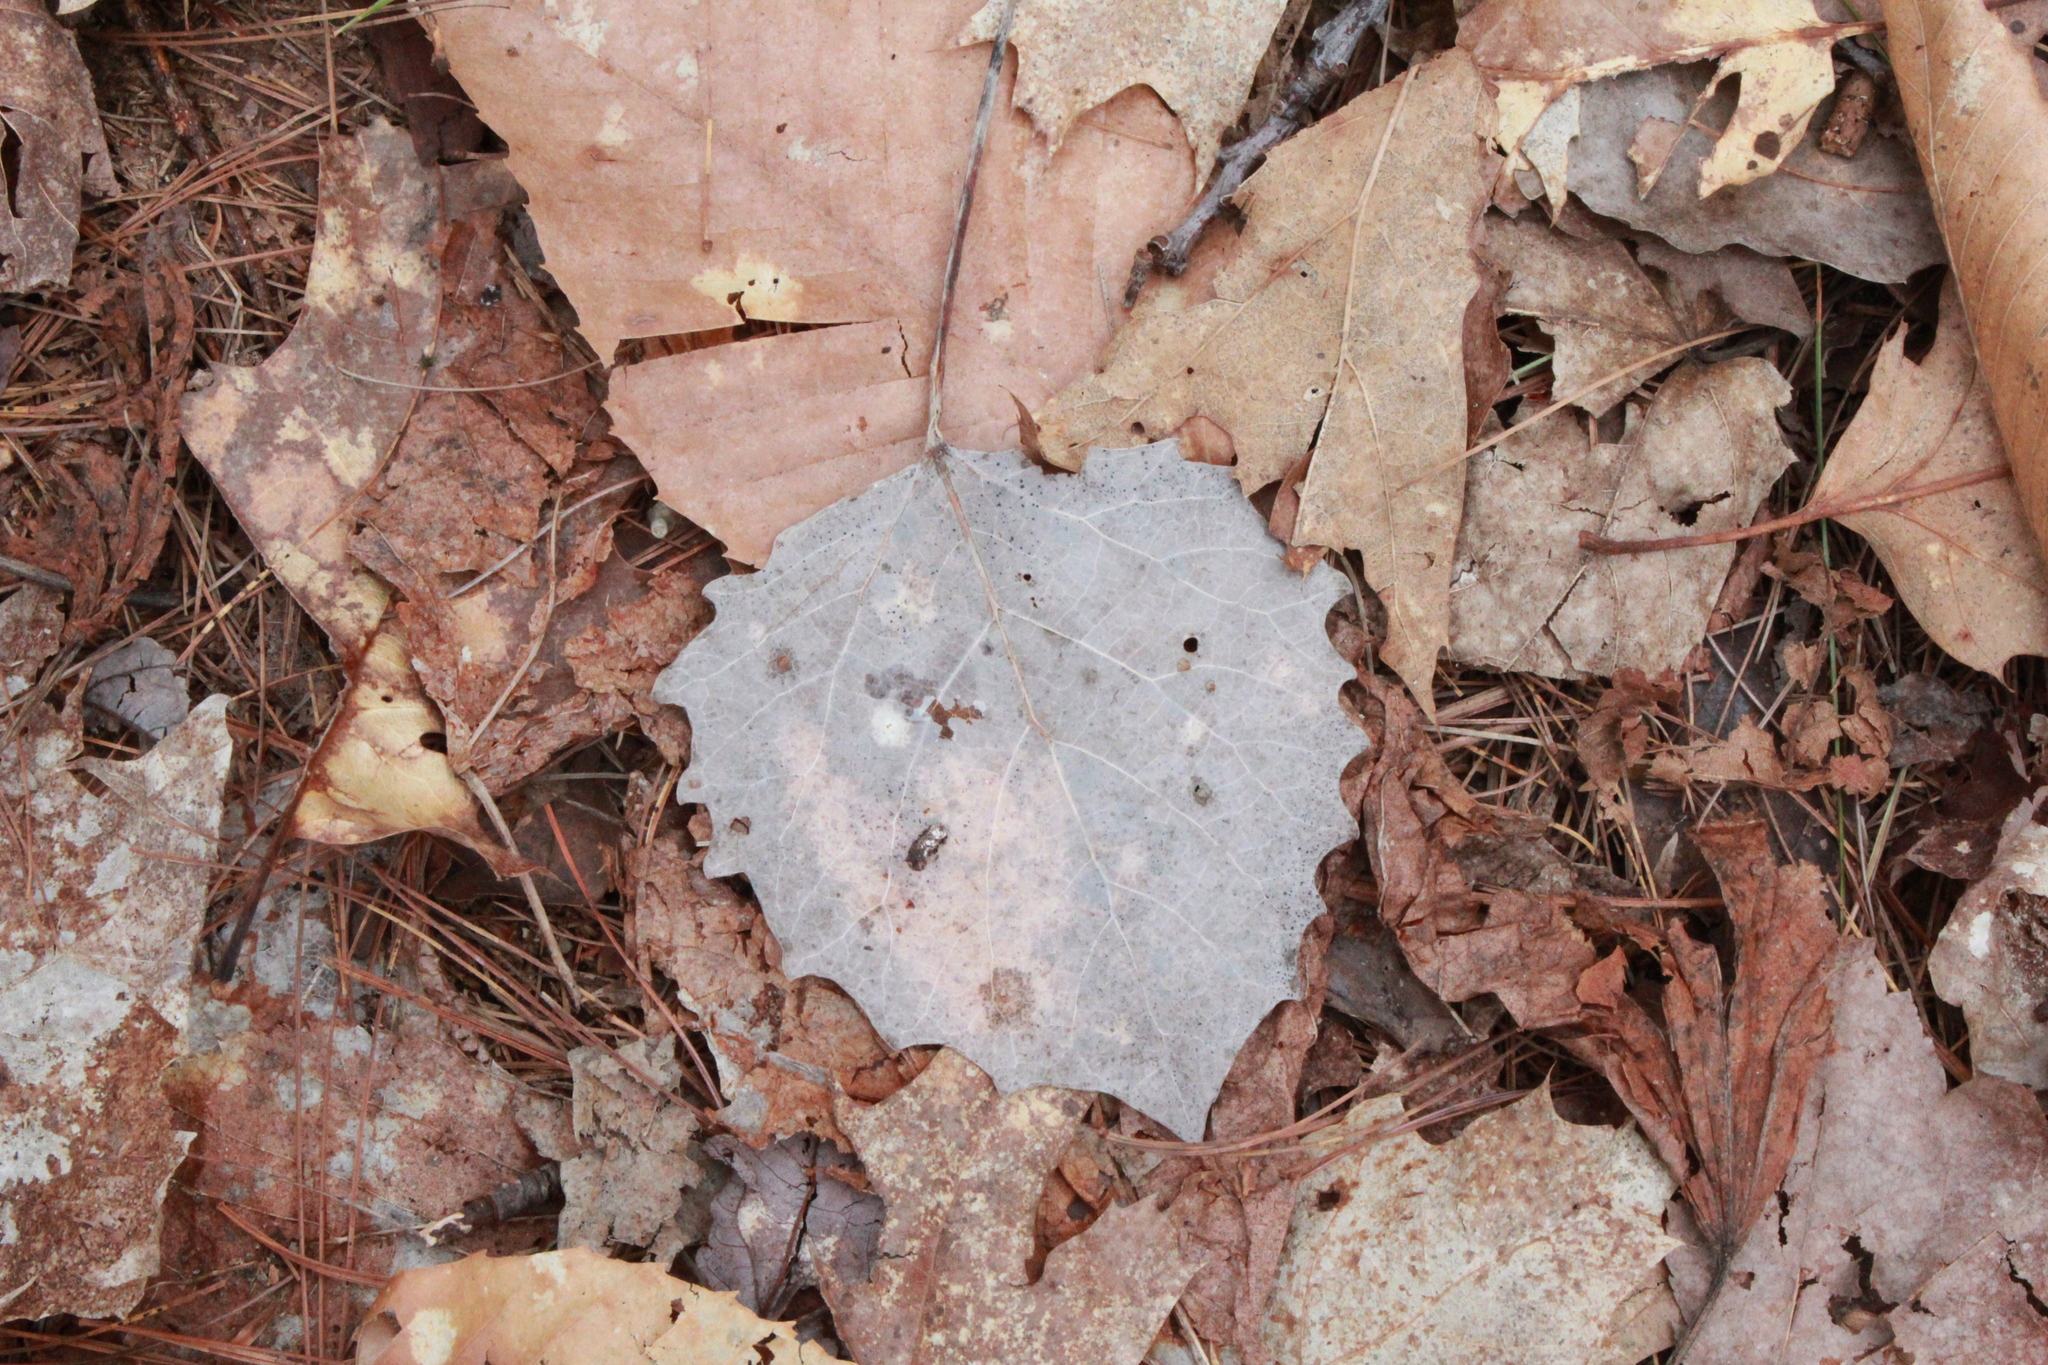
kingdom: Plantae
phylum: Tracheophyta
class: Magnoliopsida
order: Malpighiales
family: Salicaceae
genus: Populus
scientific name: Populus grandidentata
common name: Bigtooth aspen
